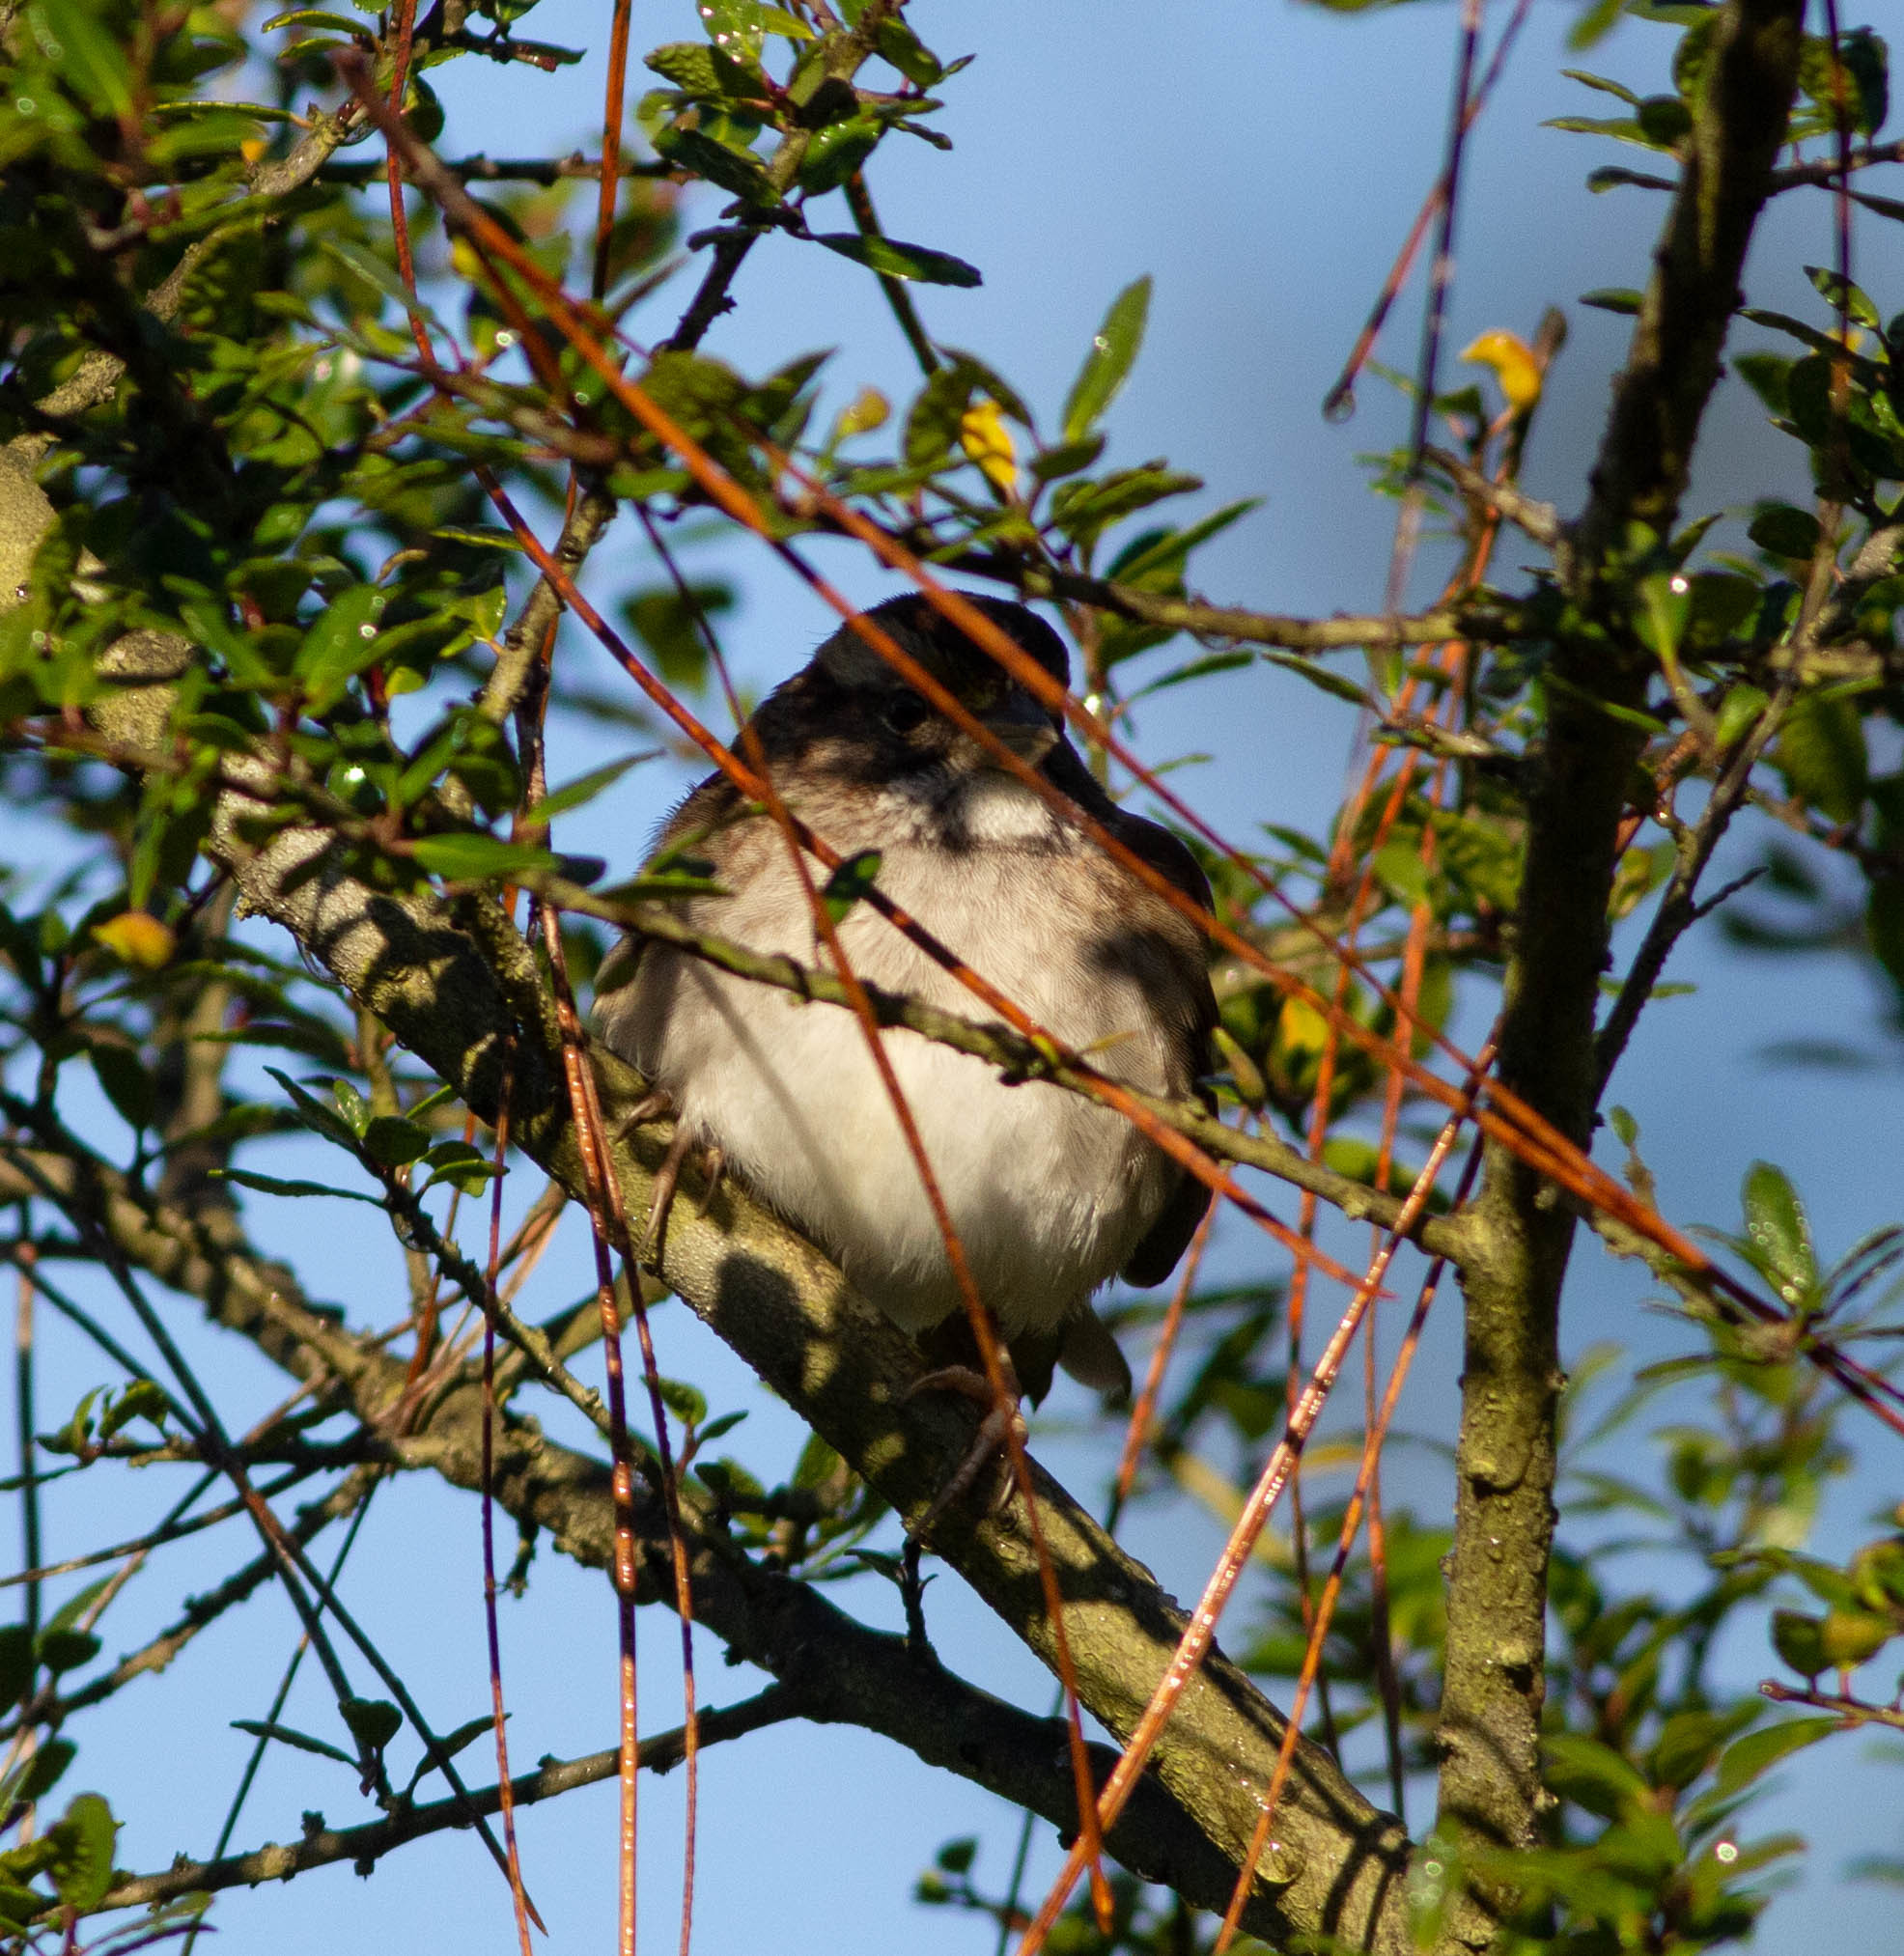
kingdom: Animalia
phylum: Chordata
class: Aves
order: Passeriformes
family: Passerellidae
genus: Zonotrichia
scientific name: Zonotrichia albicollis
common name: White-throated sparrow
